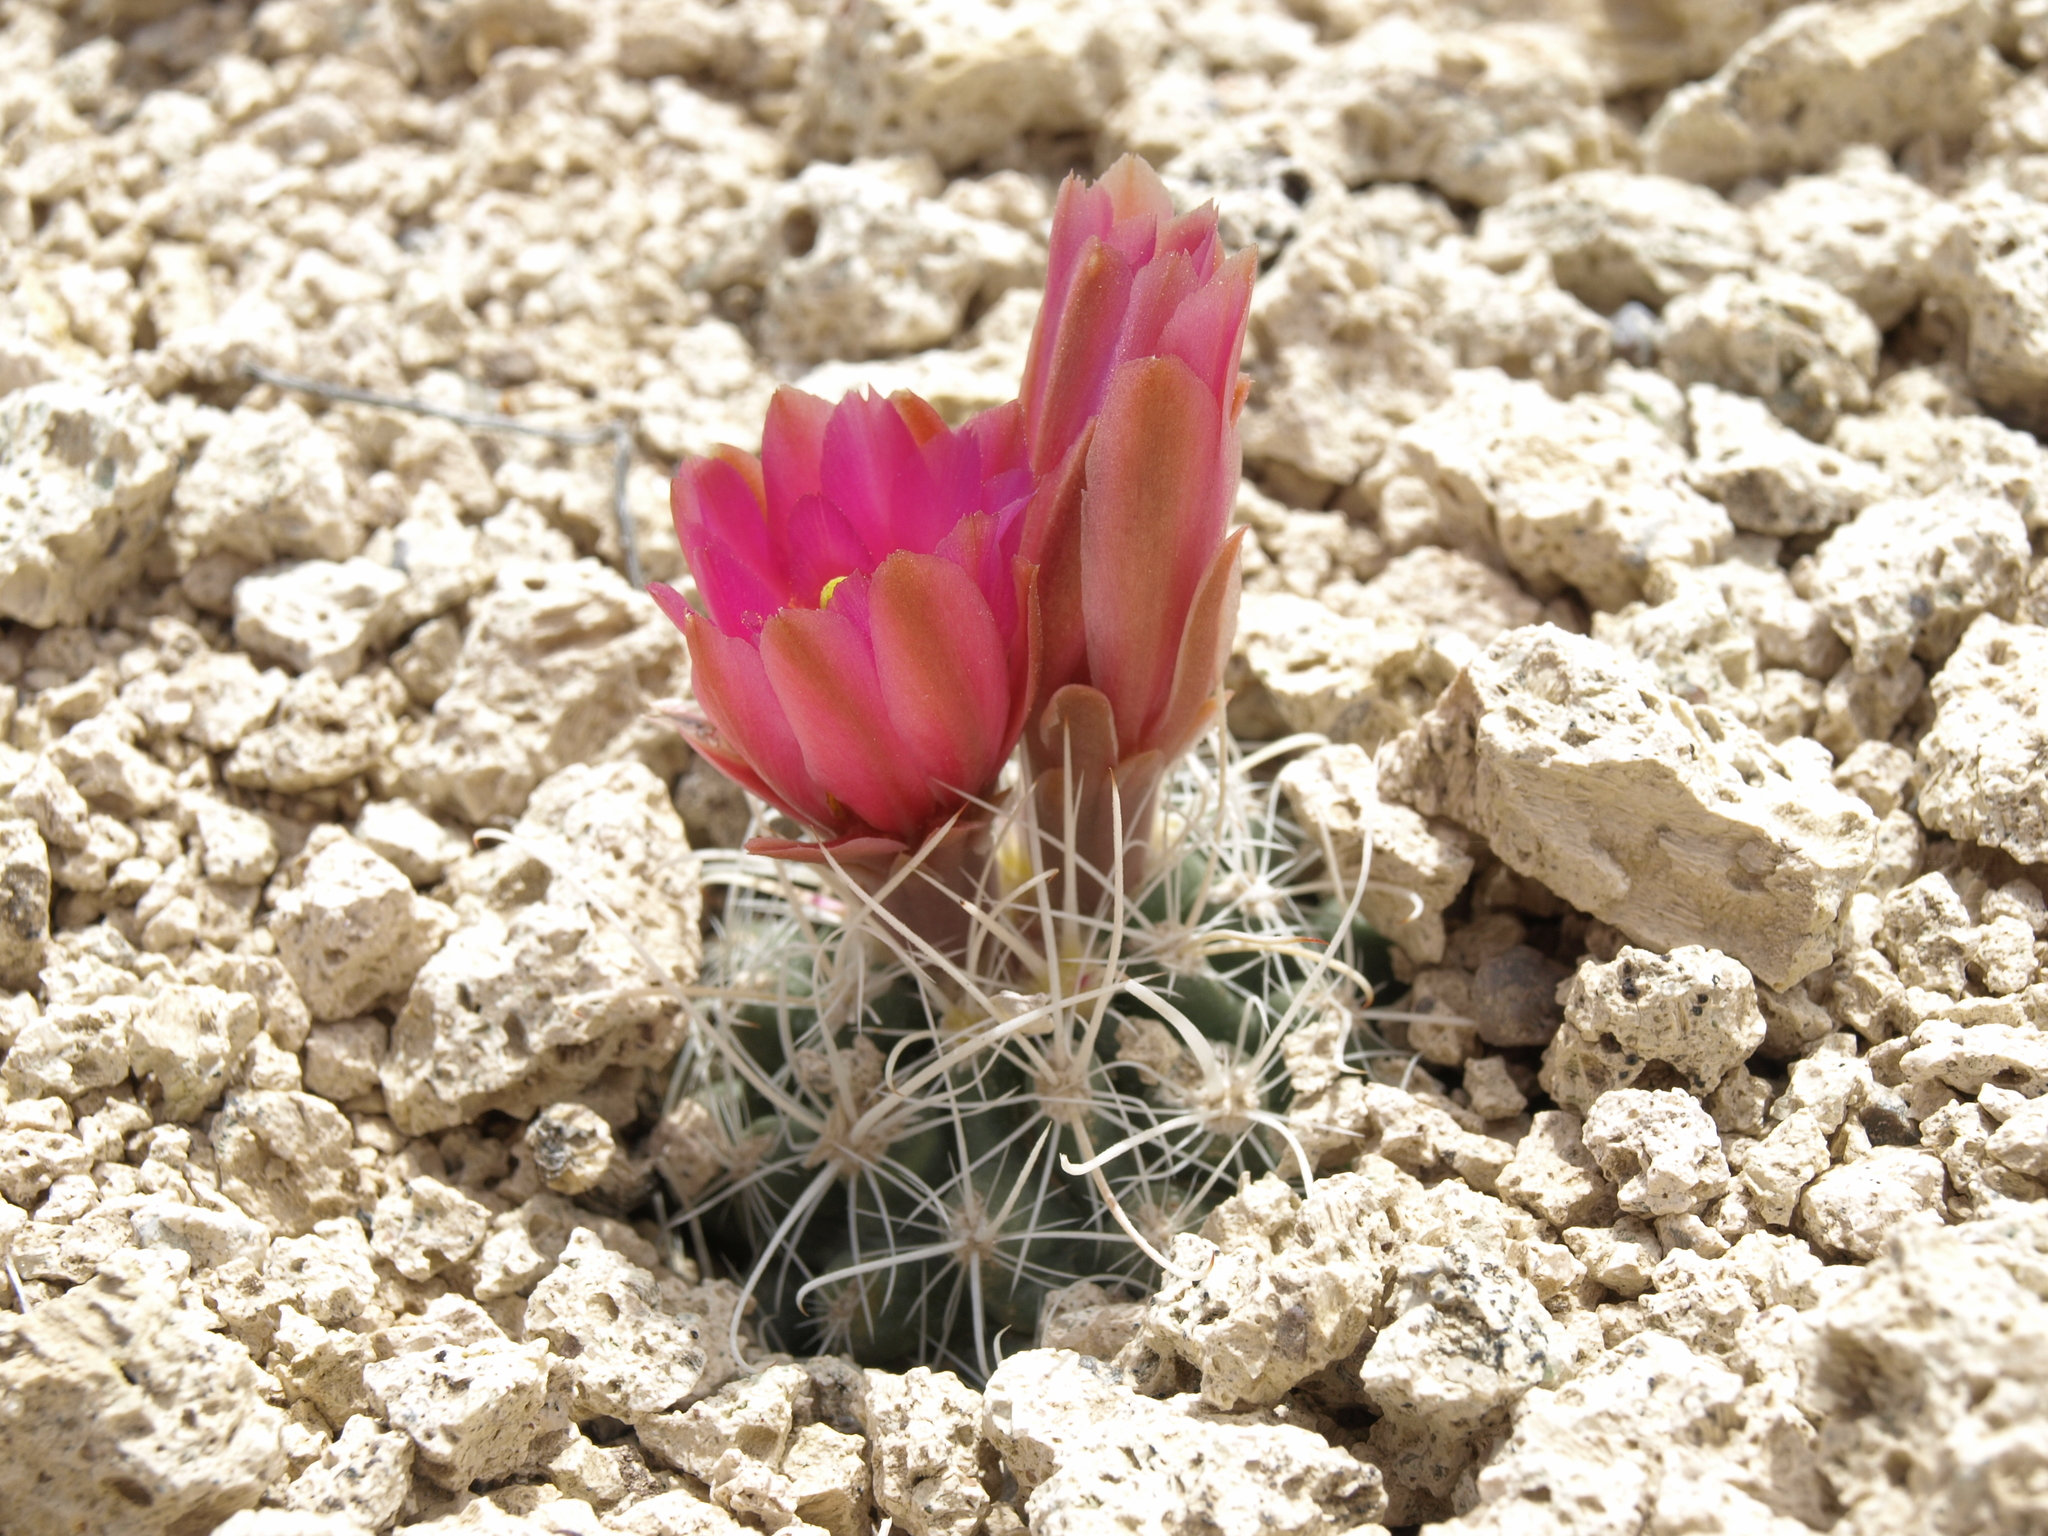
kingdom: Plantae
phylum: Tracheophyta
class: Magnoliopsida
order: Caryophyllales
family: Cactaceae
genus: Sclerocactus
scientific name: Sclerocactus nyensis
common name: Nye county fish-hook cactus
